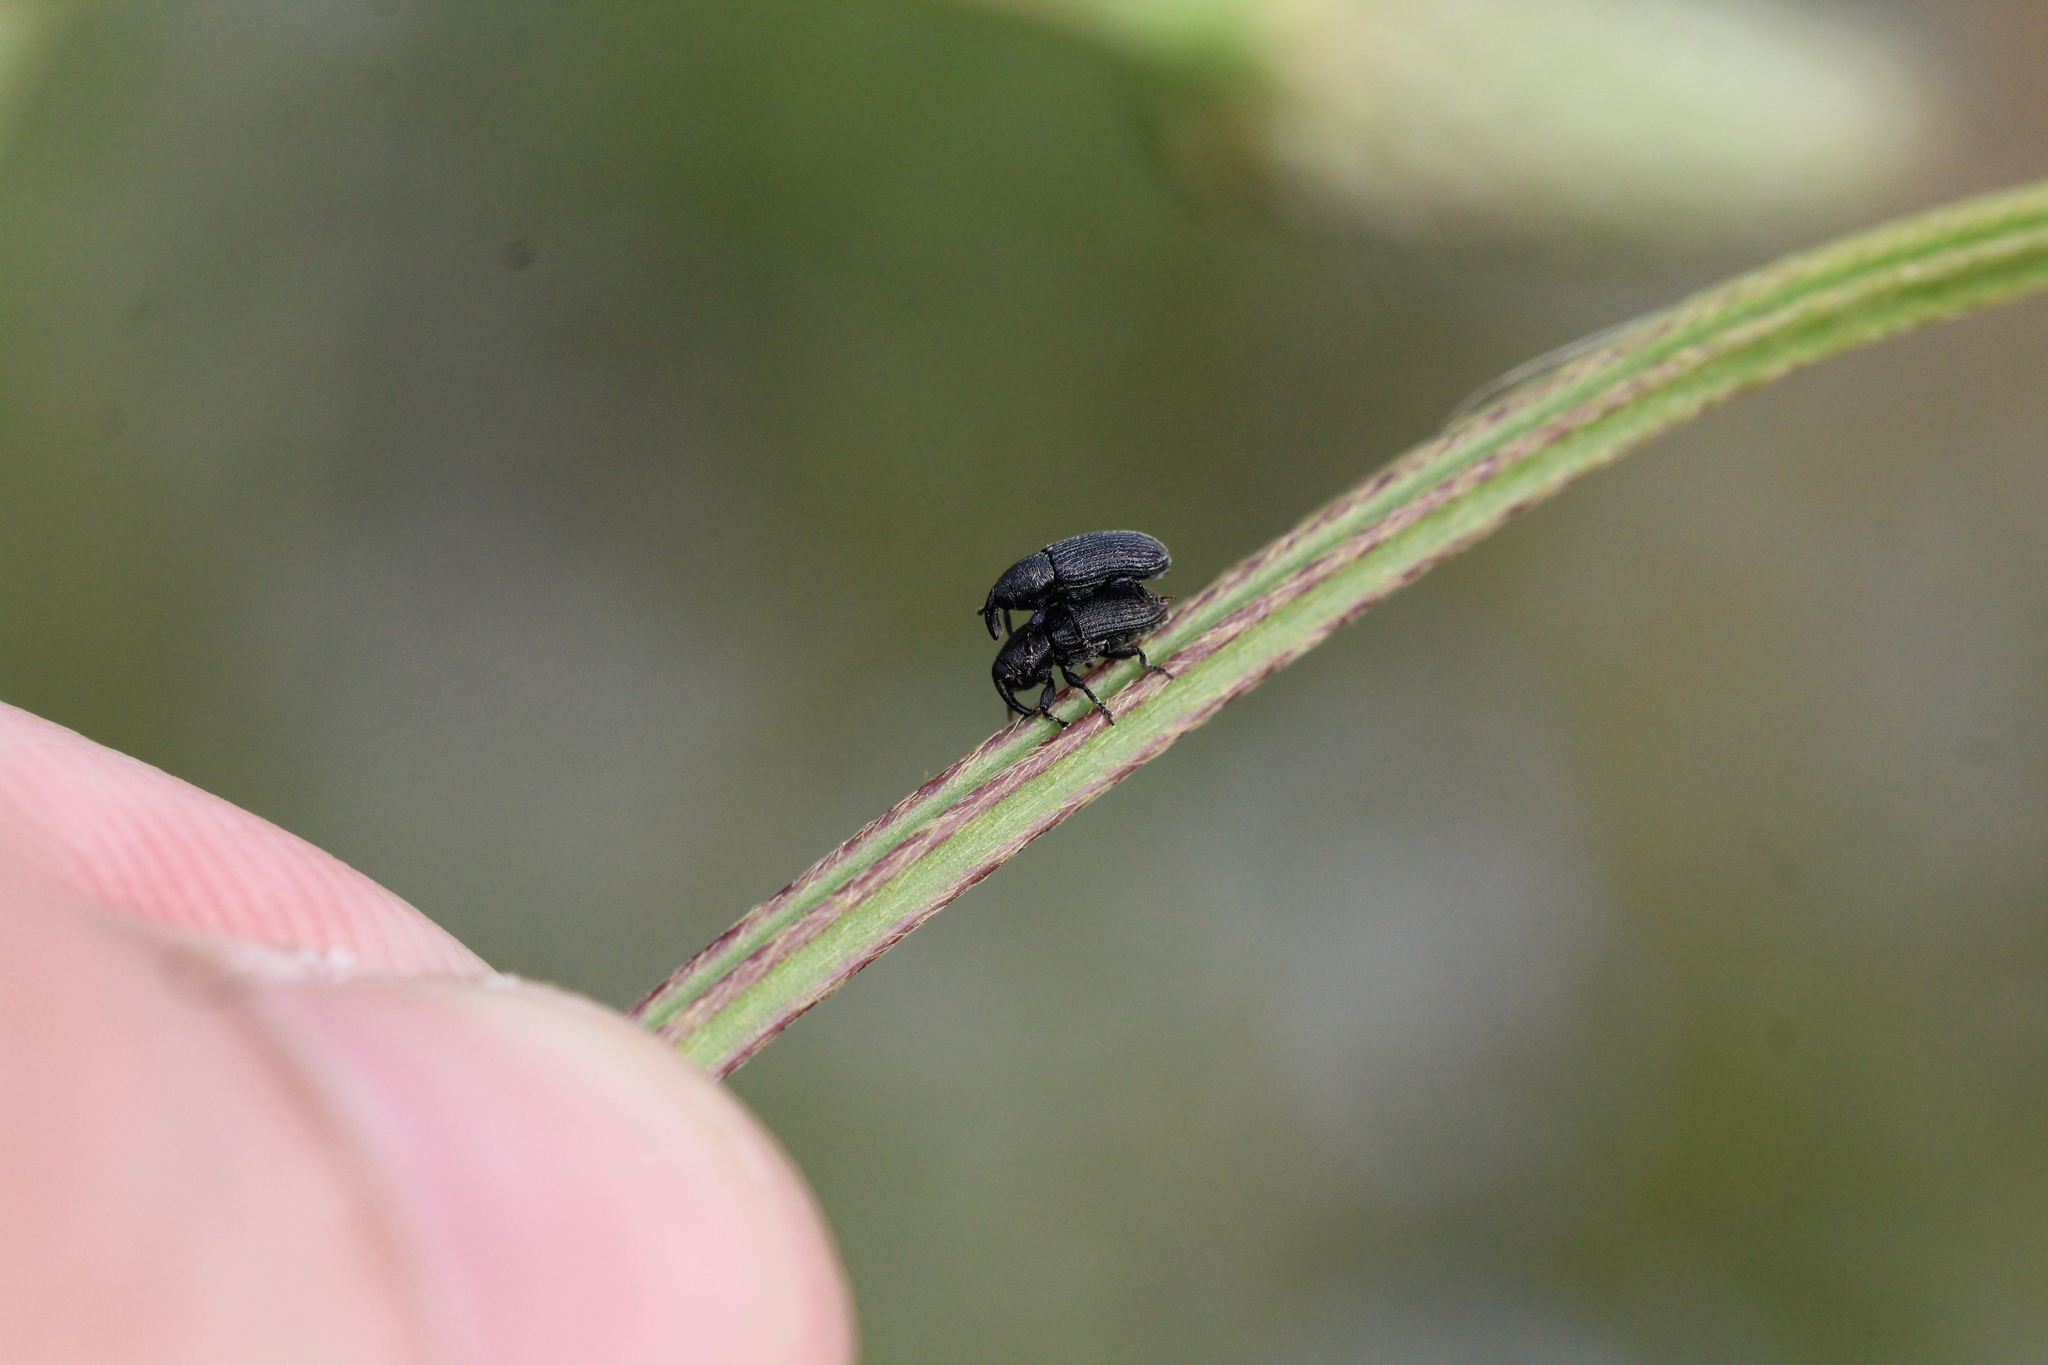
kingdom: Animalia
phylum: Arthropoda
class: Insecta
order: Coleoptera
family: Curculionidae
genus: Mecinus
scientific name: Mecinus pyraster
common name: Weevil
